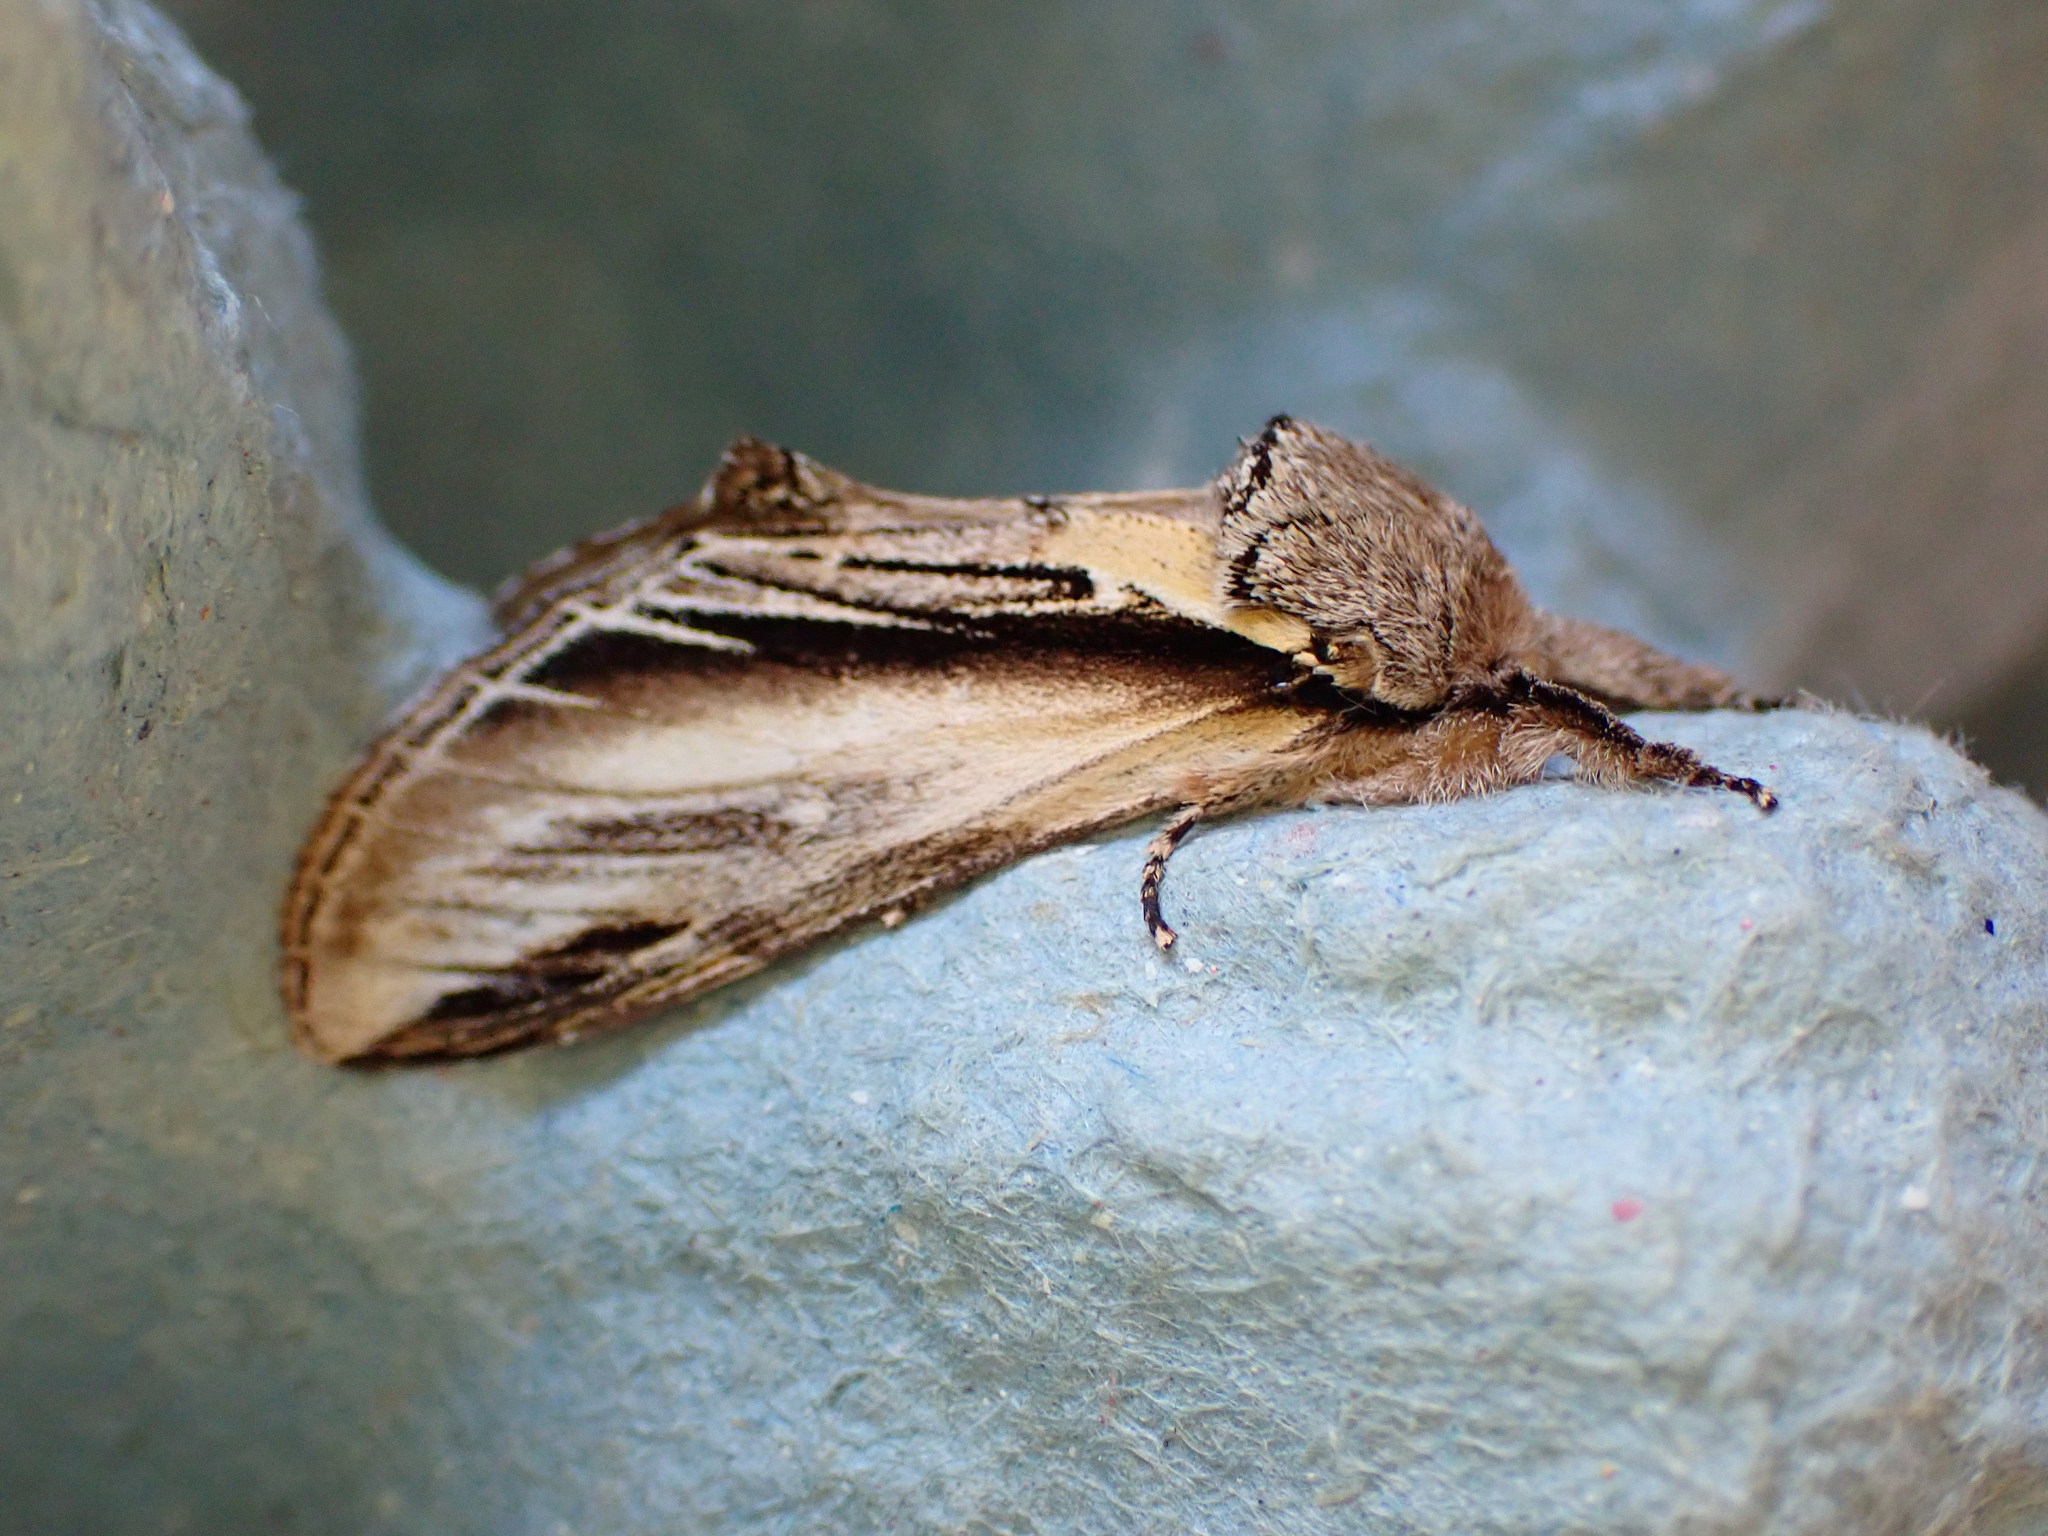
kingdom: Animalia
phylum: Arthropoda
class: Insecta
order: Lepidoptera
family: Notodontidae
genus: Pheosia
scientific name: Pheosia tremula
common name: Swallow prominent
